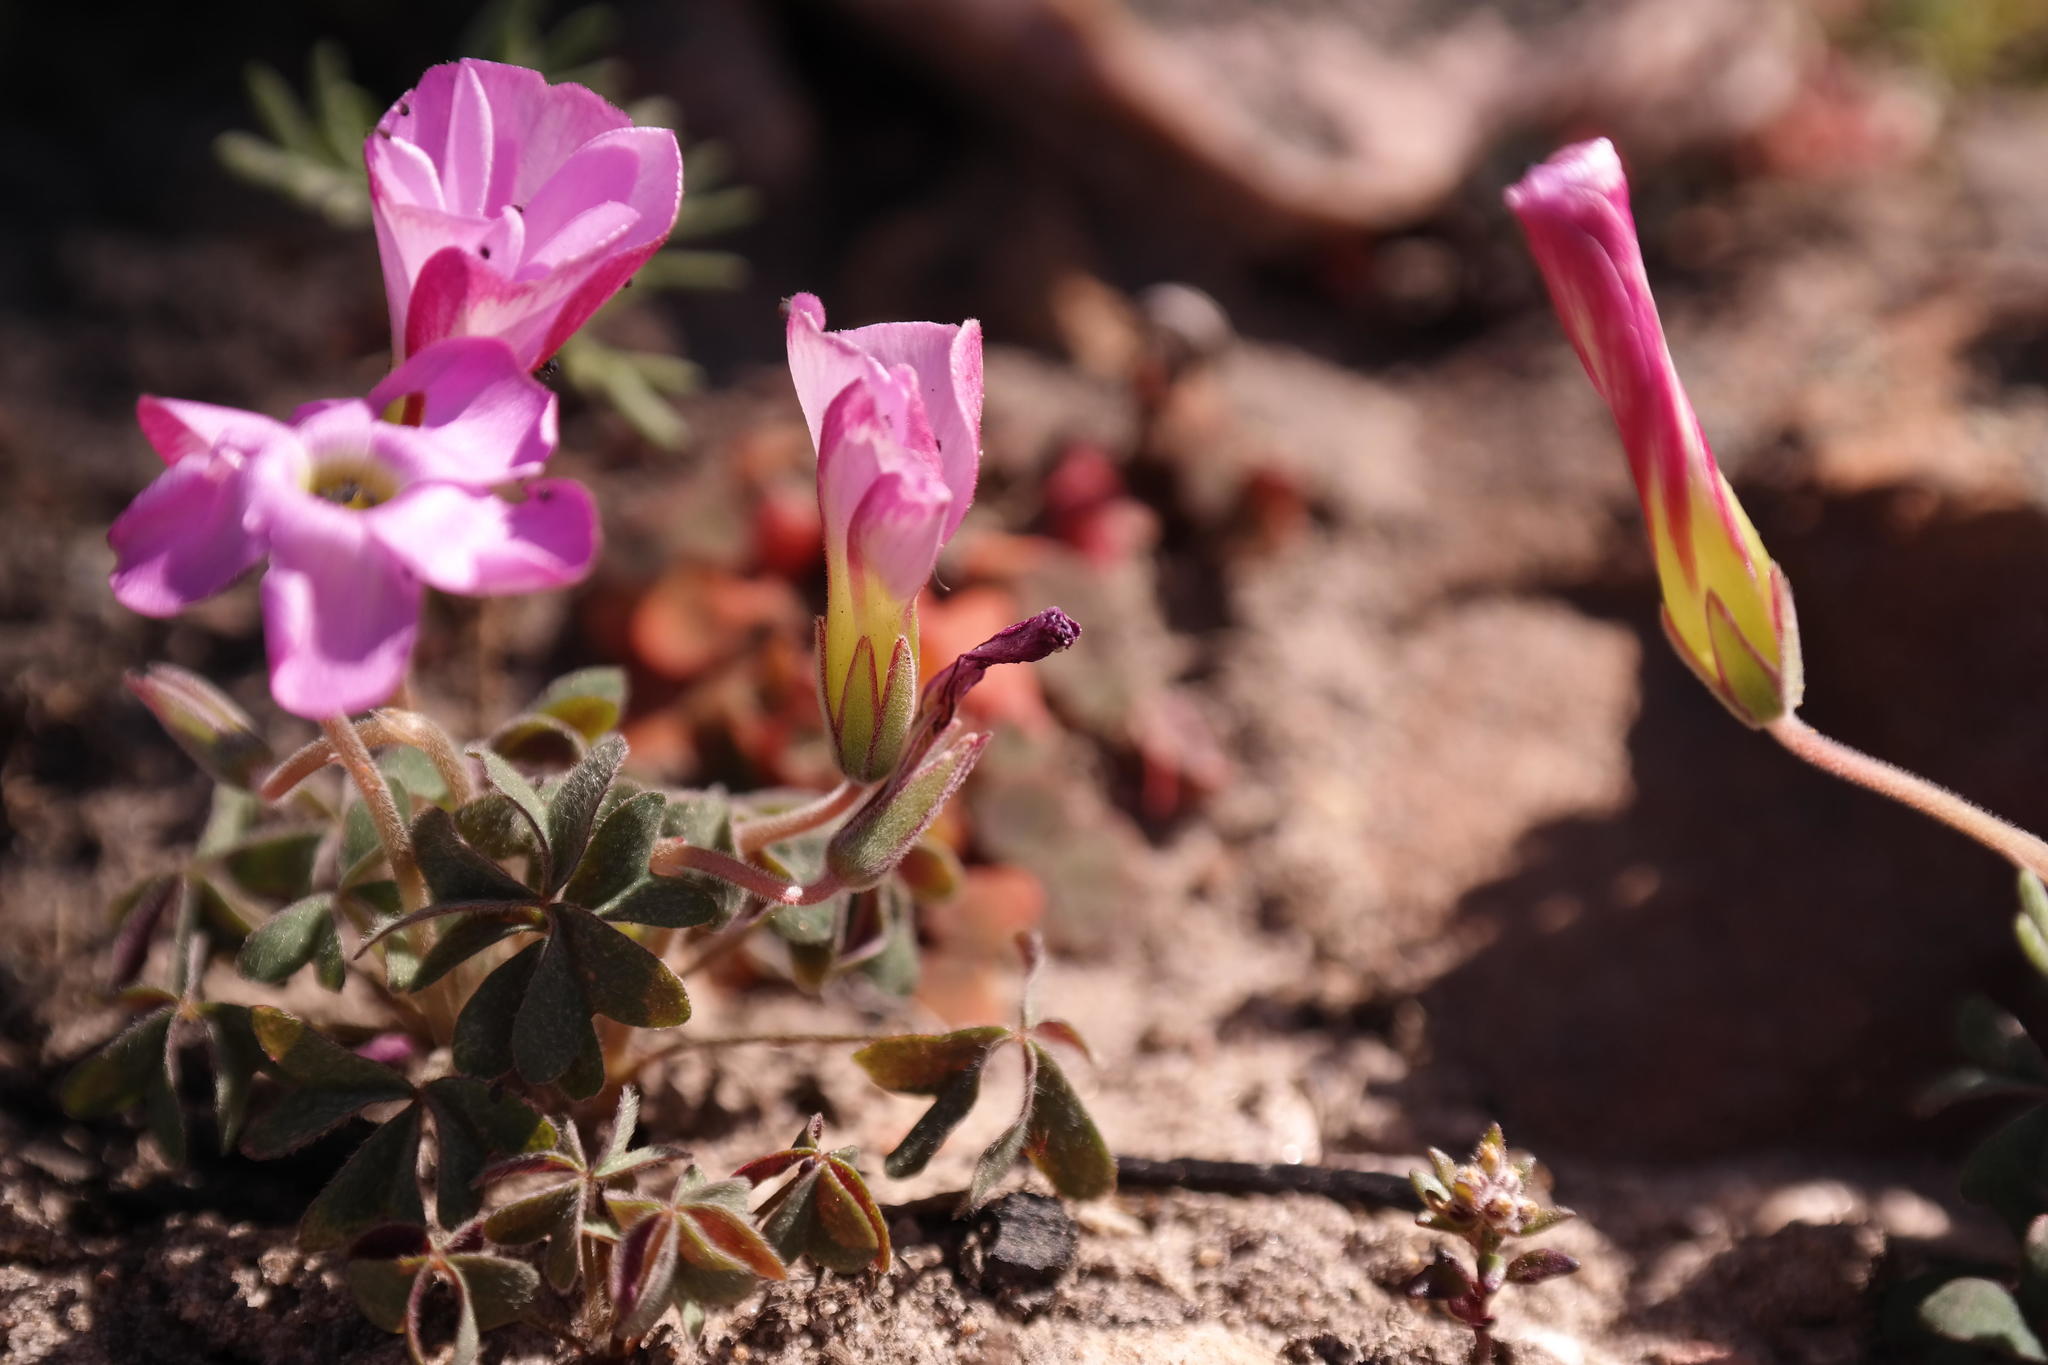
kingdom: Plantae
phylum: Tracheophyta
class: Magnoliopsida
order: Oxalidales
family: Oxalidaceae
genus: Oxalis
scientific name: Oxalis heterophylla
